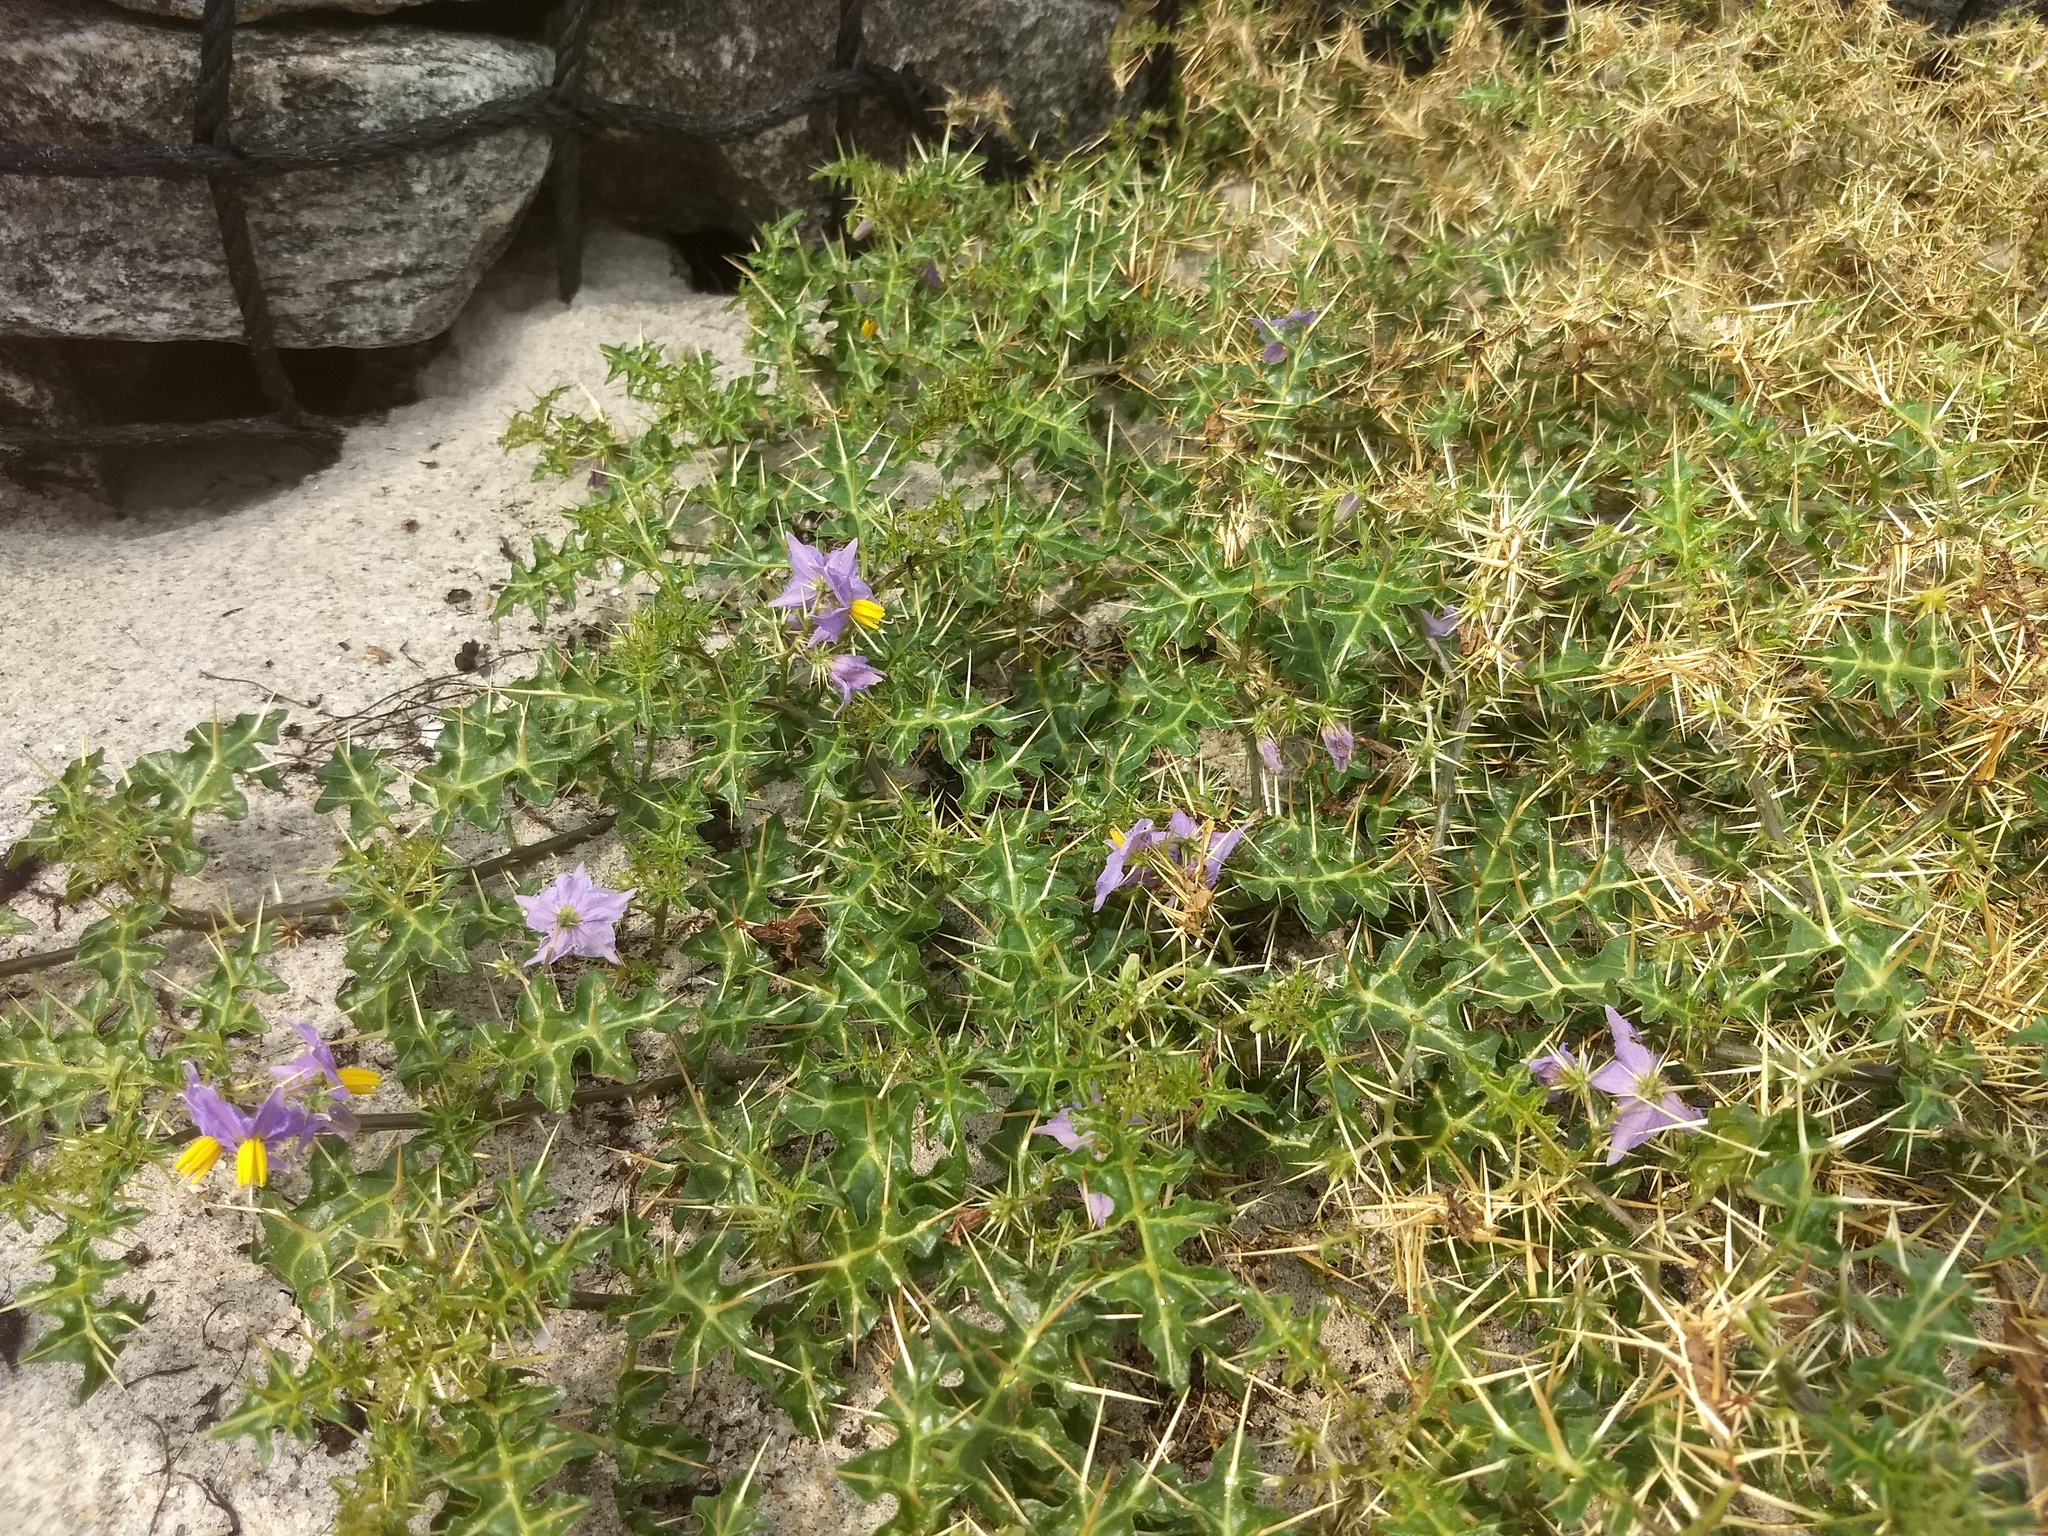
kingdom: Plantae
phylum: Tracheophyta
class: Magnoliopsida
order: Solanales
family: Solanaceae
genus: Solanum
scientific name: Solanum virginianum
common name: Surattense nightshade
